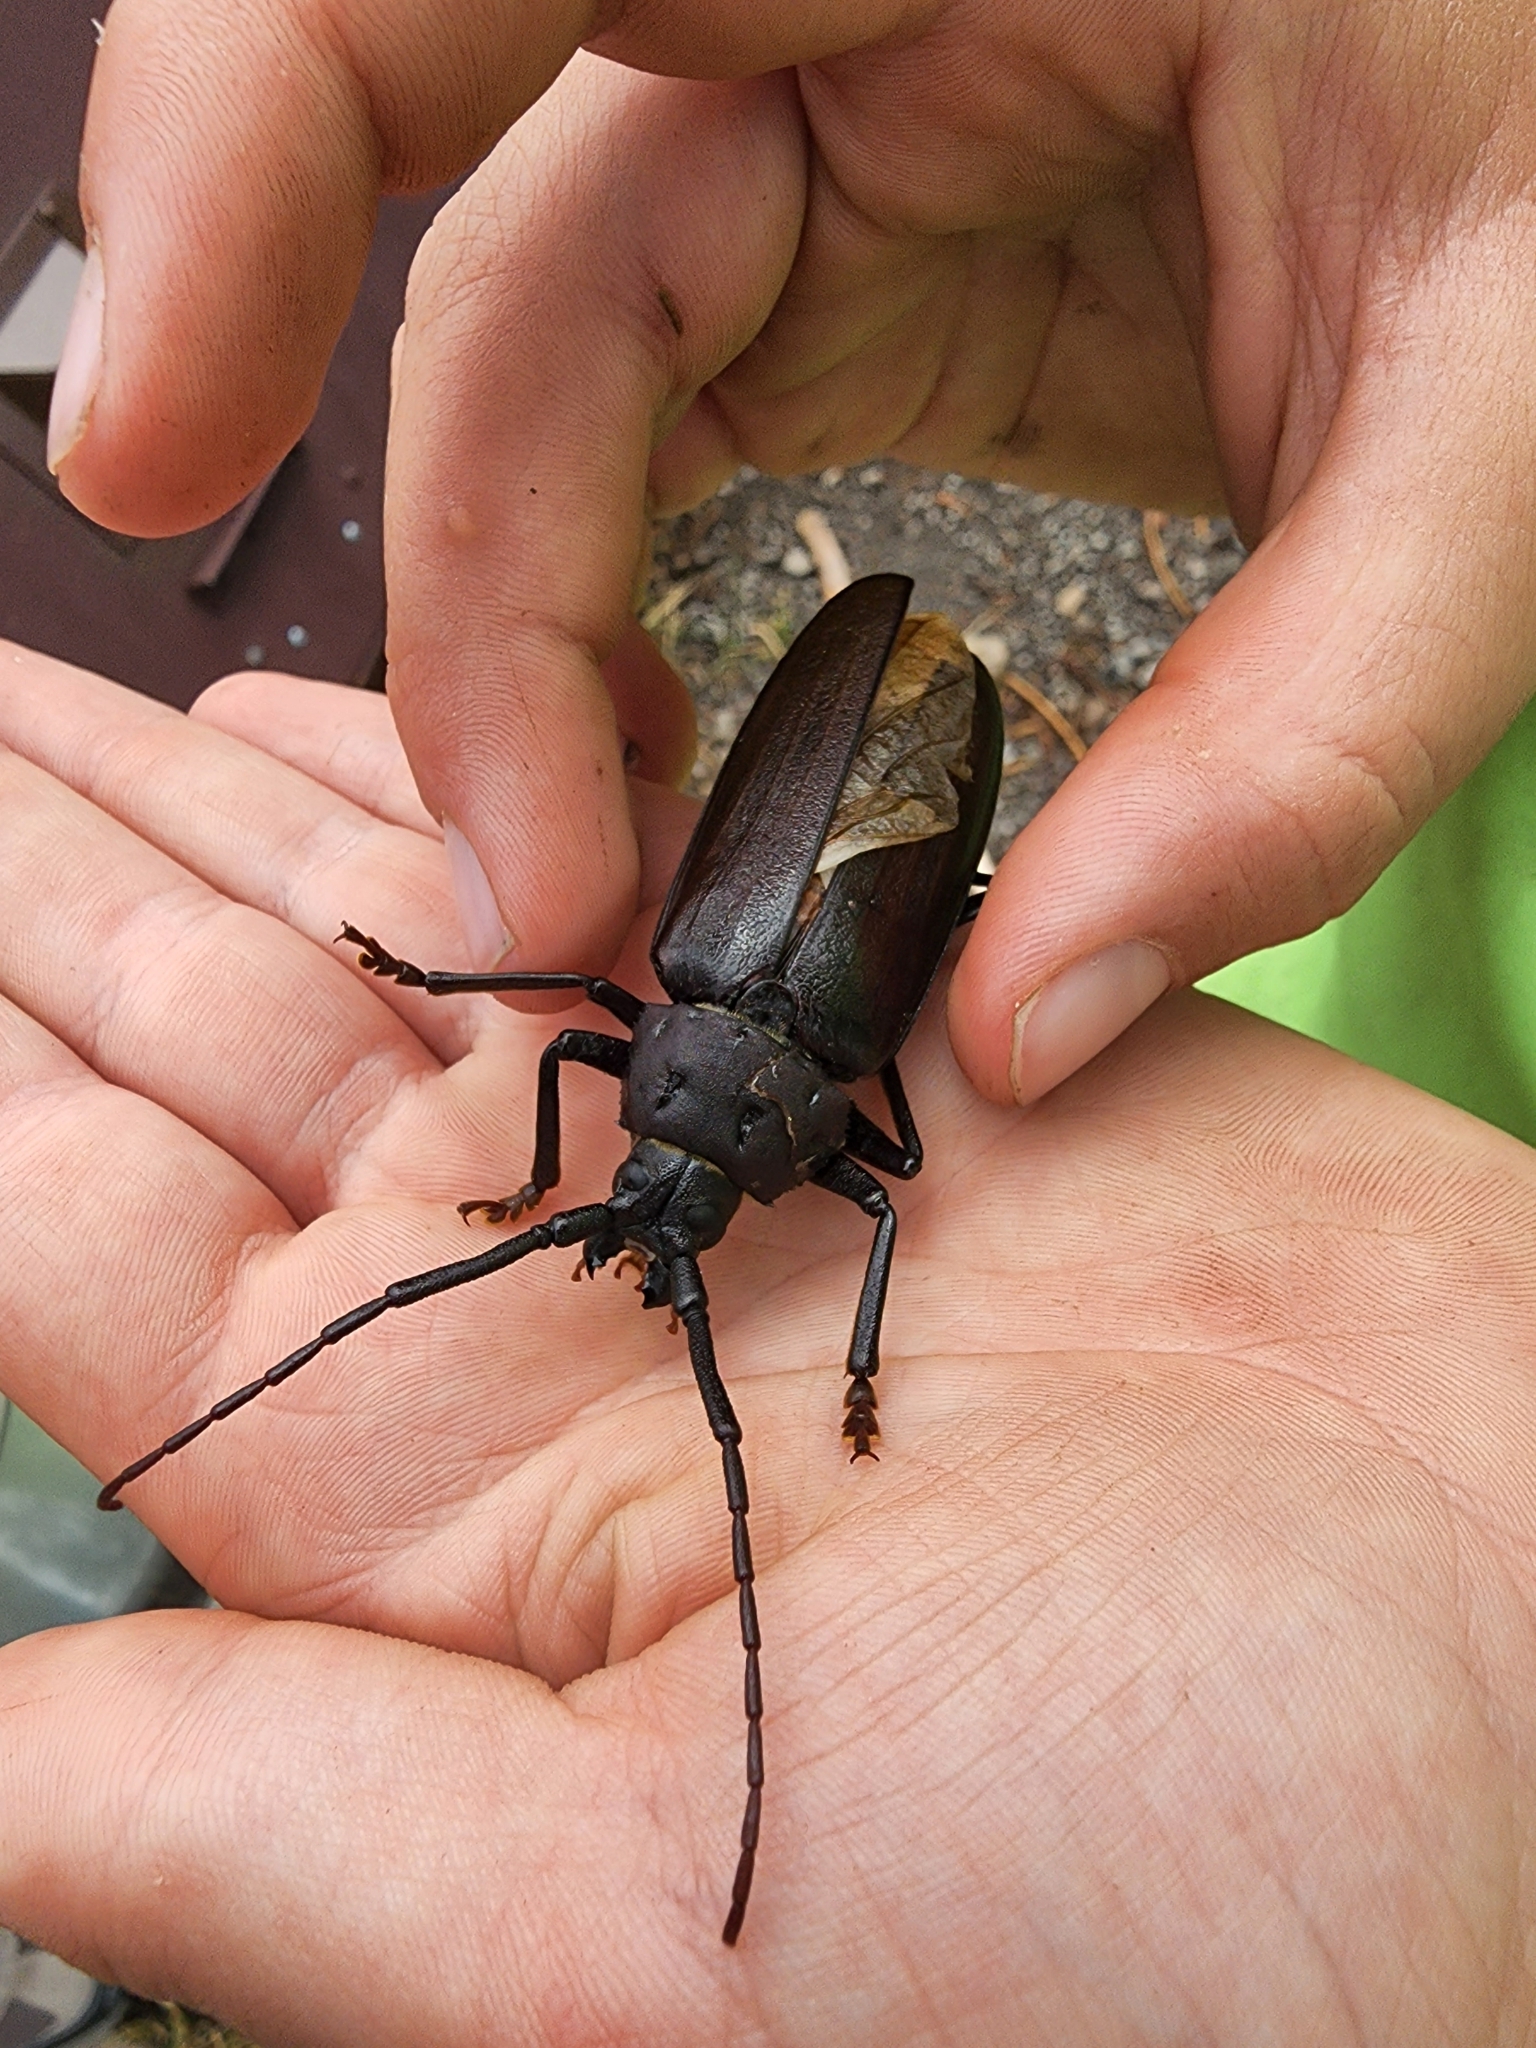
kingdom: Animalia
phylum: Arthropoda
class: Insecta
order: Coleoptera
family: Cerambycidae
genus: Trichocnemis
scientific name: Trichocnemis spiculatus
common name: Long-horned beetle
